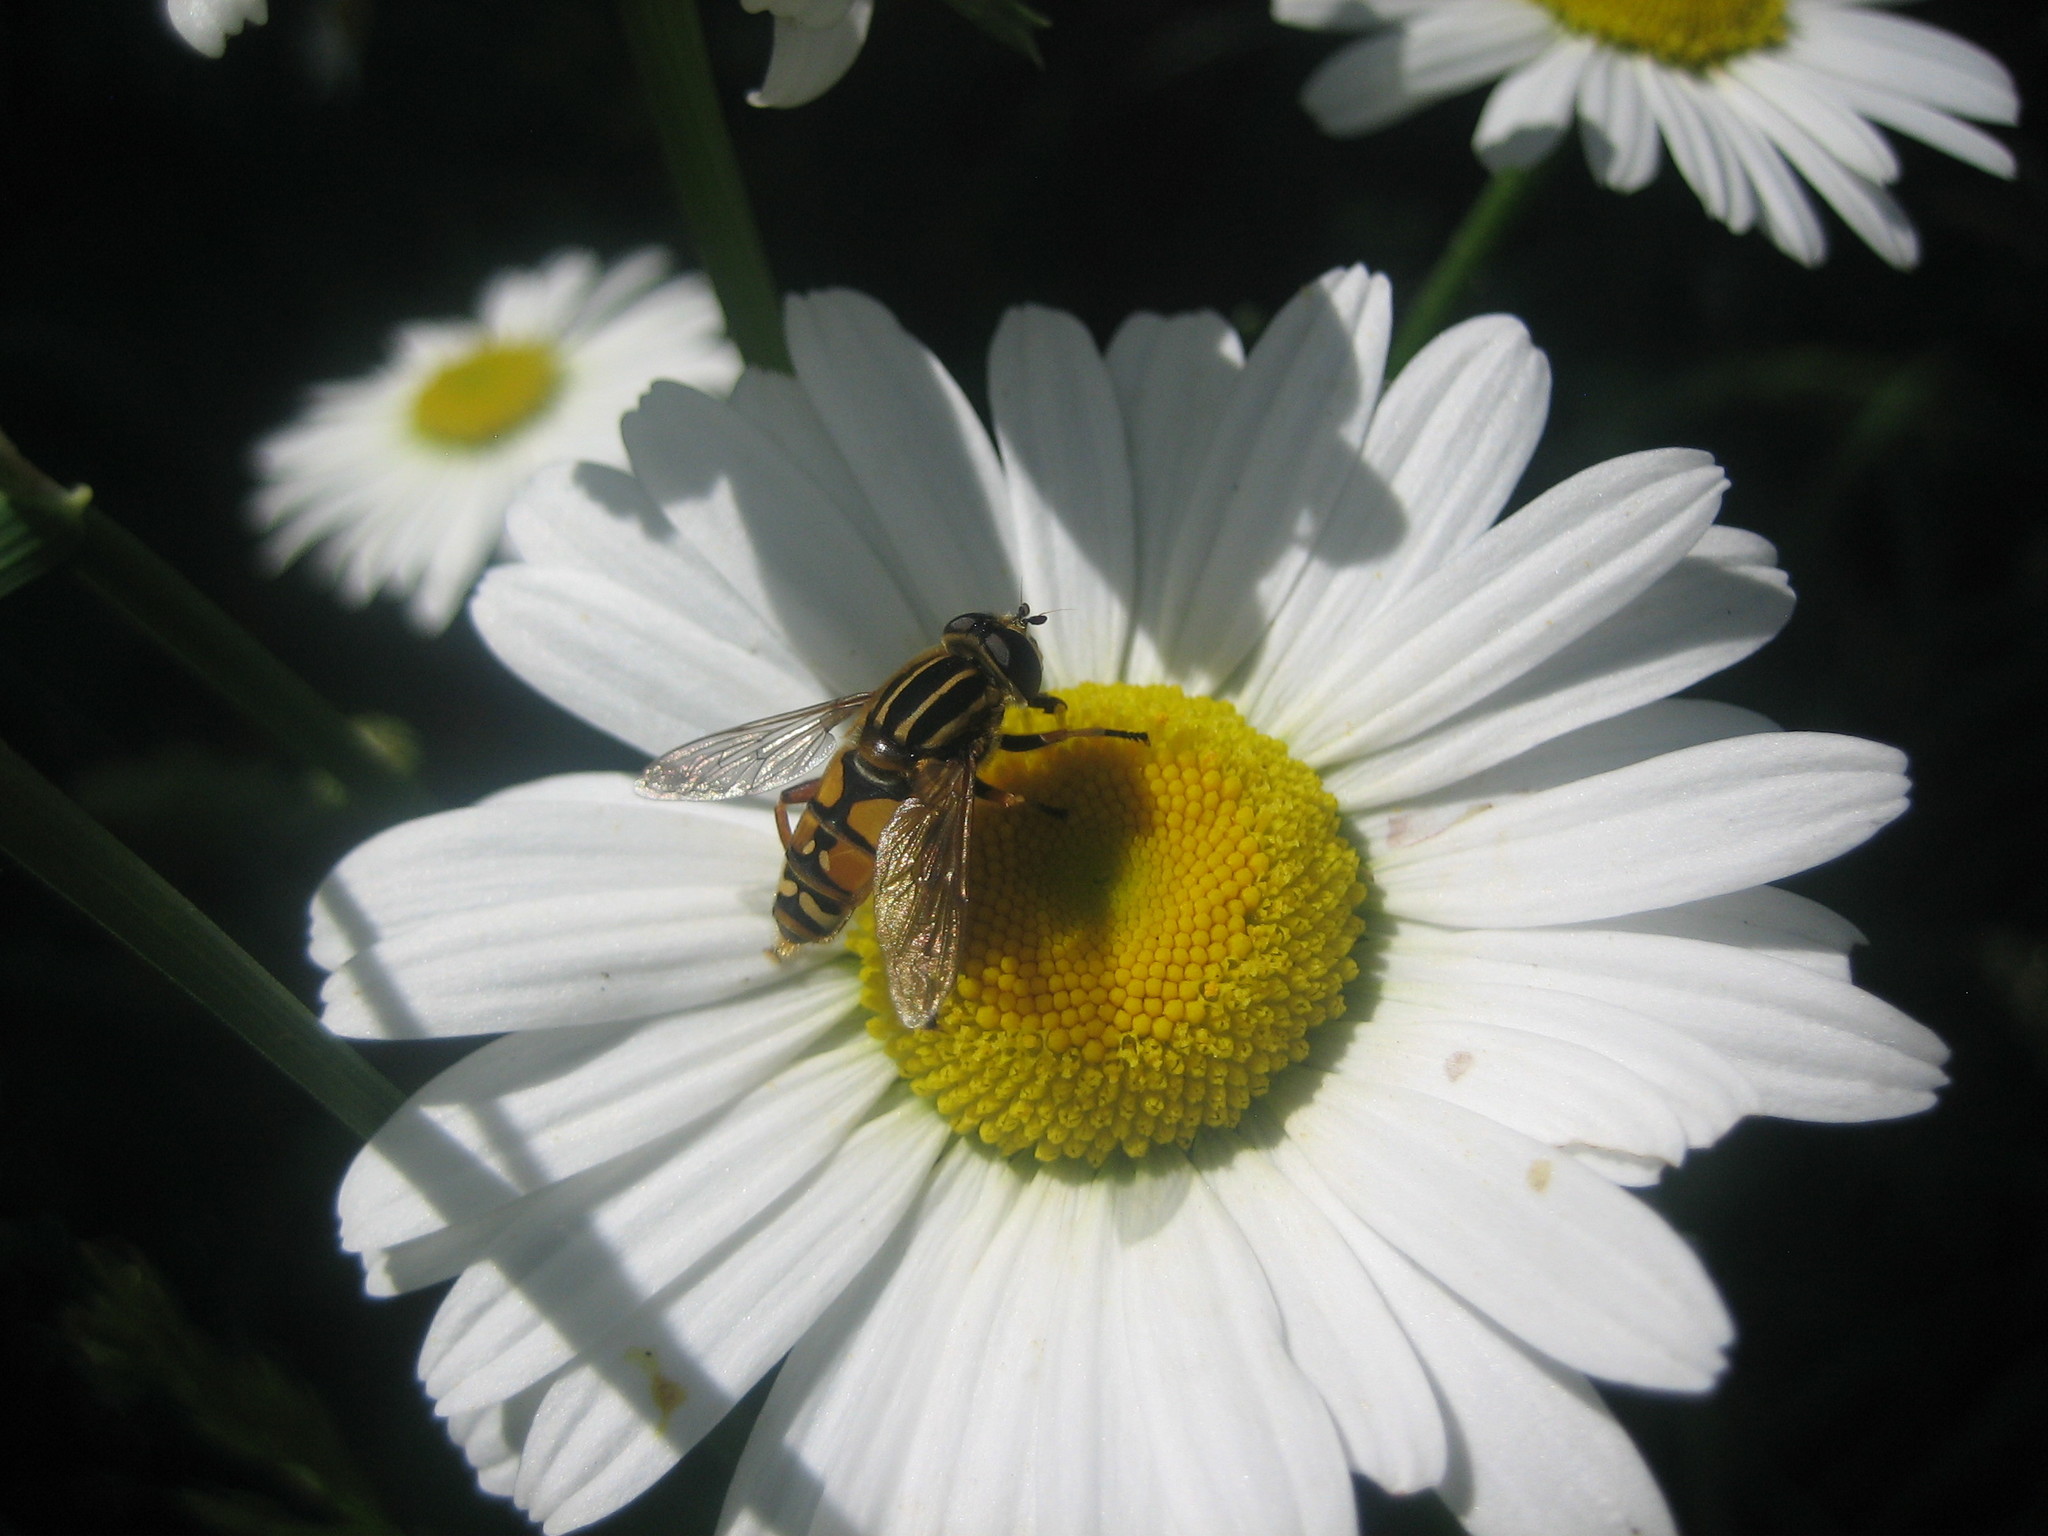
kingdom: Animalia
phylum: Arthropoda
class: Insecta
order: Diptera
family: Syrphidae
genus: Helophilus
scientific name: Helophilus pendulus
